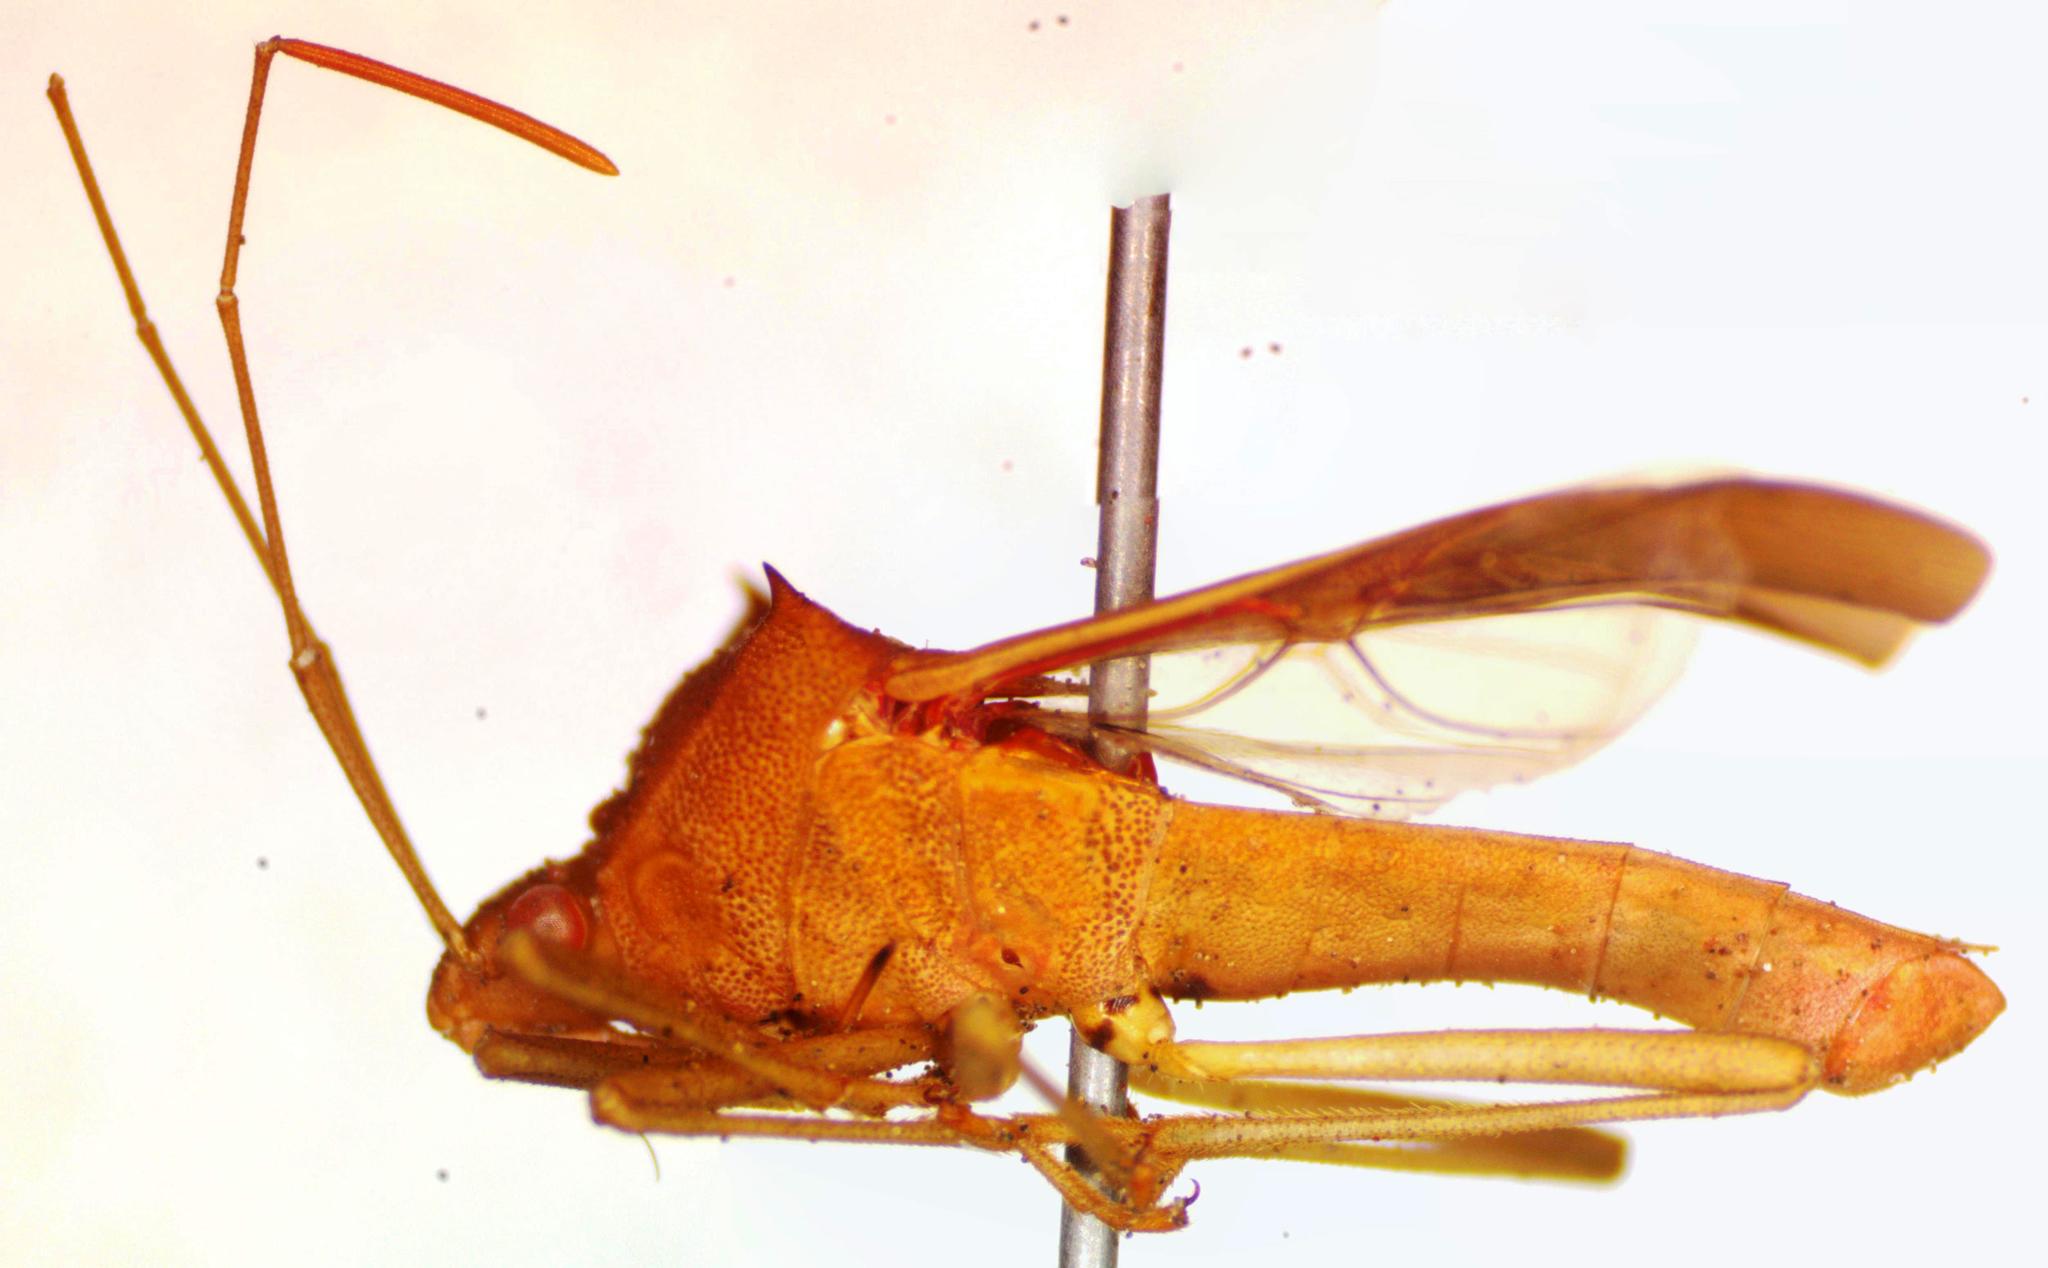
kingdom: Animalia
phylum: Arthropoda
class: Insecta
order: Hemiptera
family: Coreidae
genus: Daphnasa
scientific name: Daphnasa mucronata
